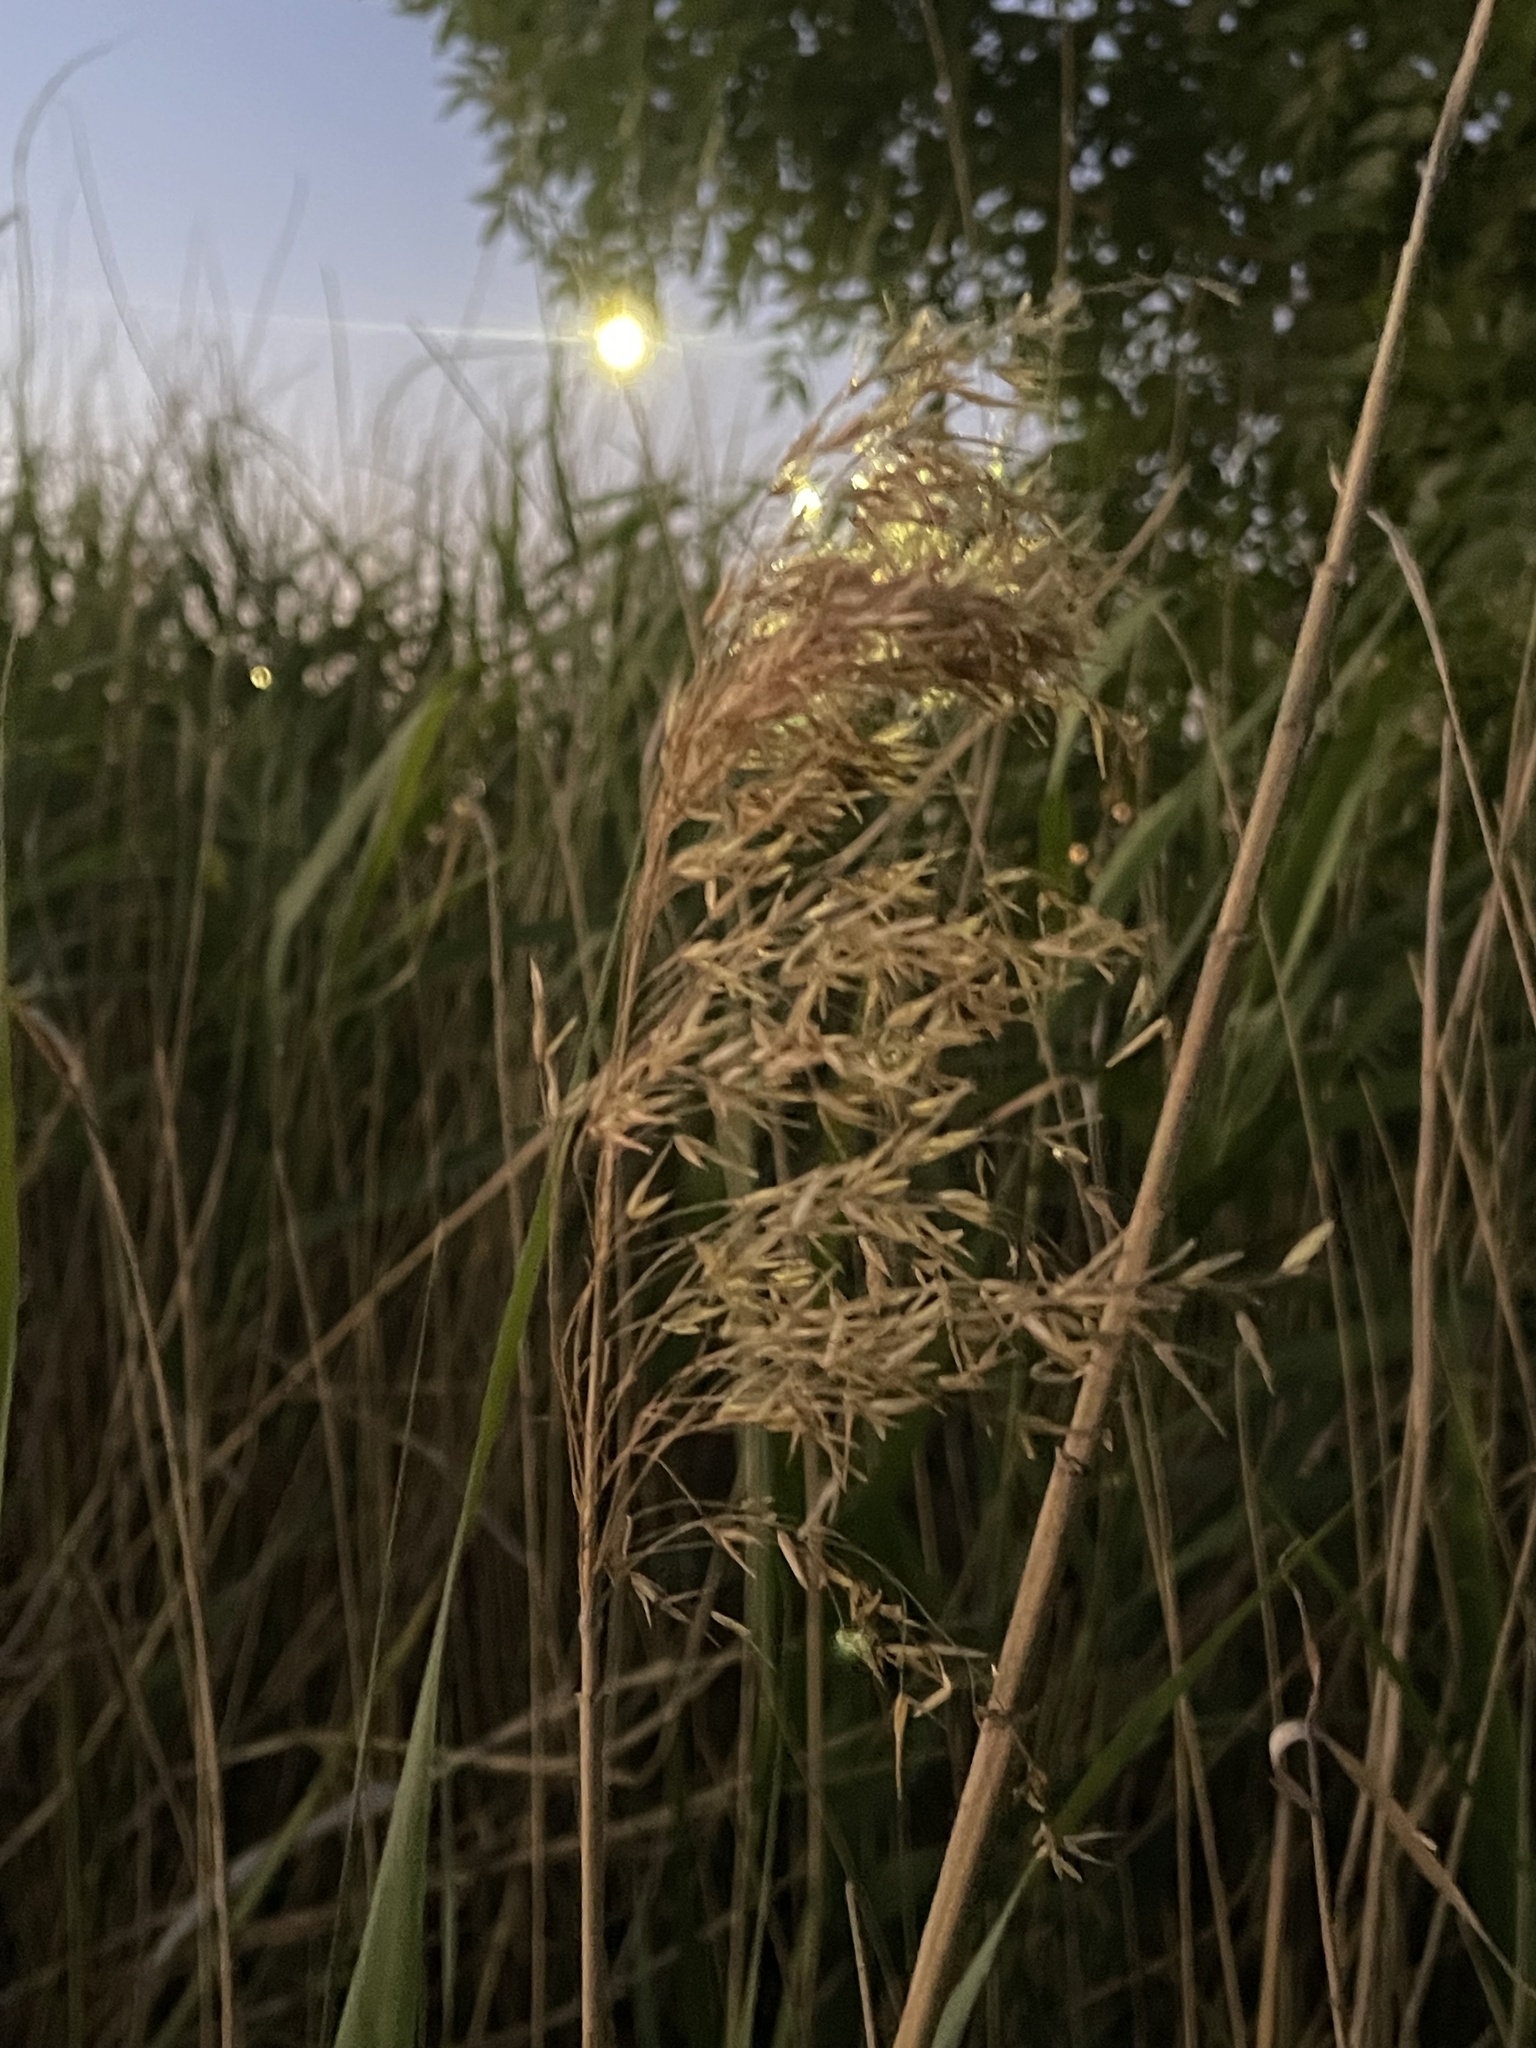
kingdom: Plantae
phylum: Tracheophyta
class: Liliopsida
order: Poales
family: Poaceae
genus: Phragmites
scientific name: Phragmites australis
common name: Common reed
